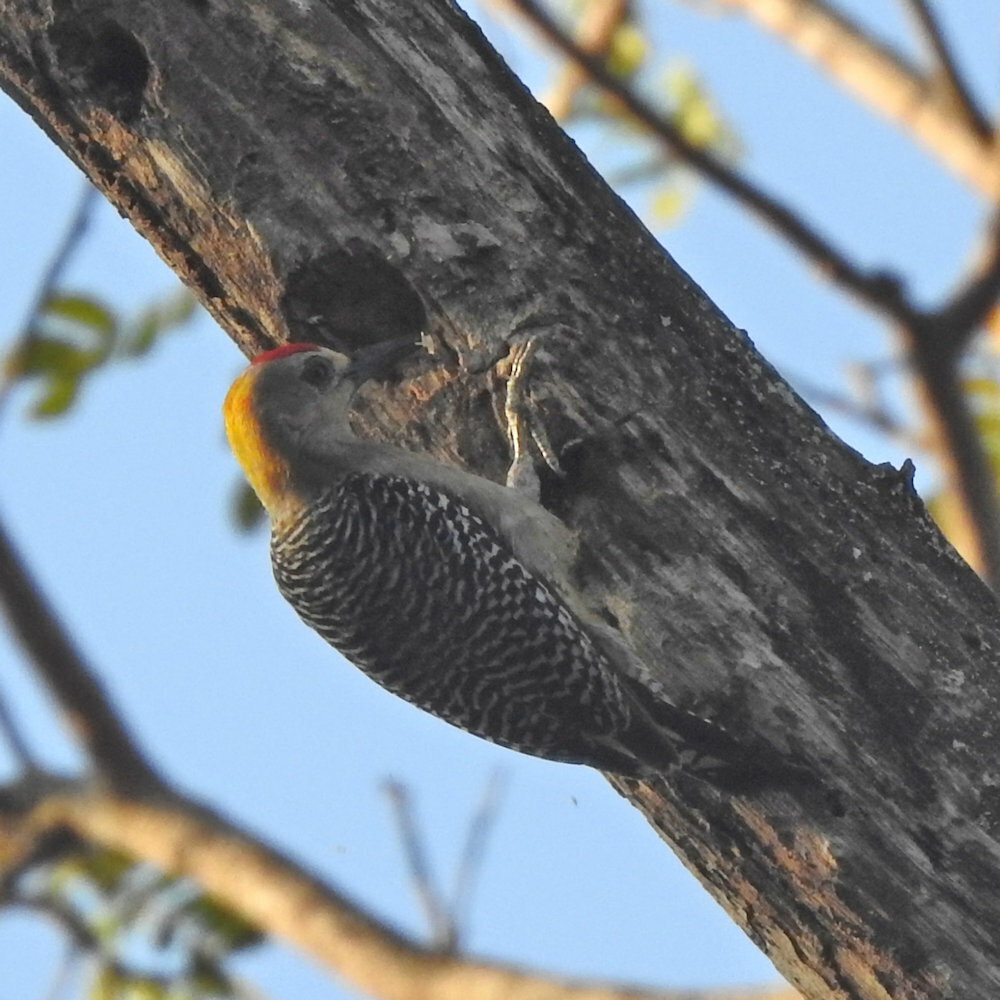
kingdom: Animalia
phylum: Chordata
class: Aves
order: Piciformes
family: Picidae
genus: Melanerpes
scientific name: Melanerpes hoffmannii
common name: Hoffmann's woodpecker
